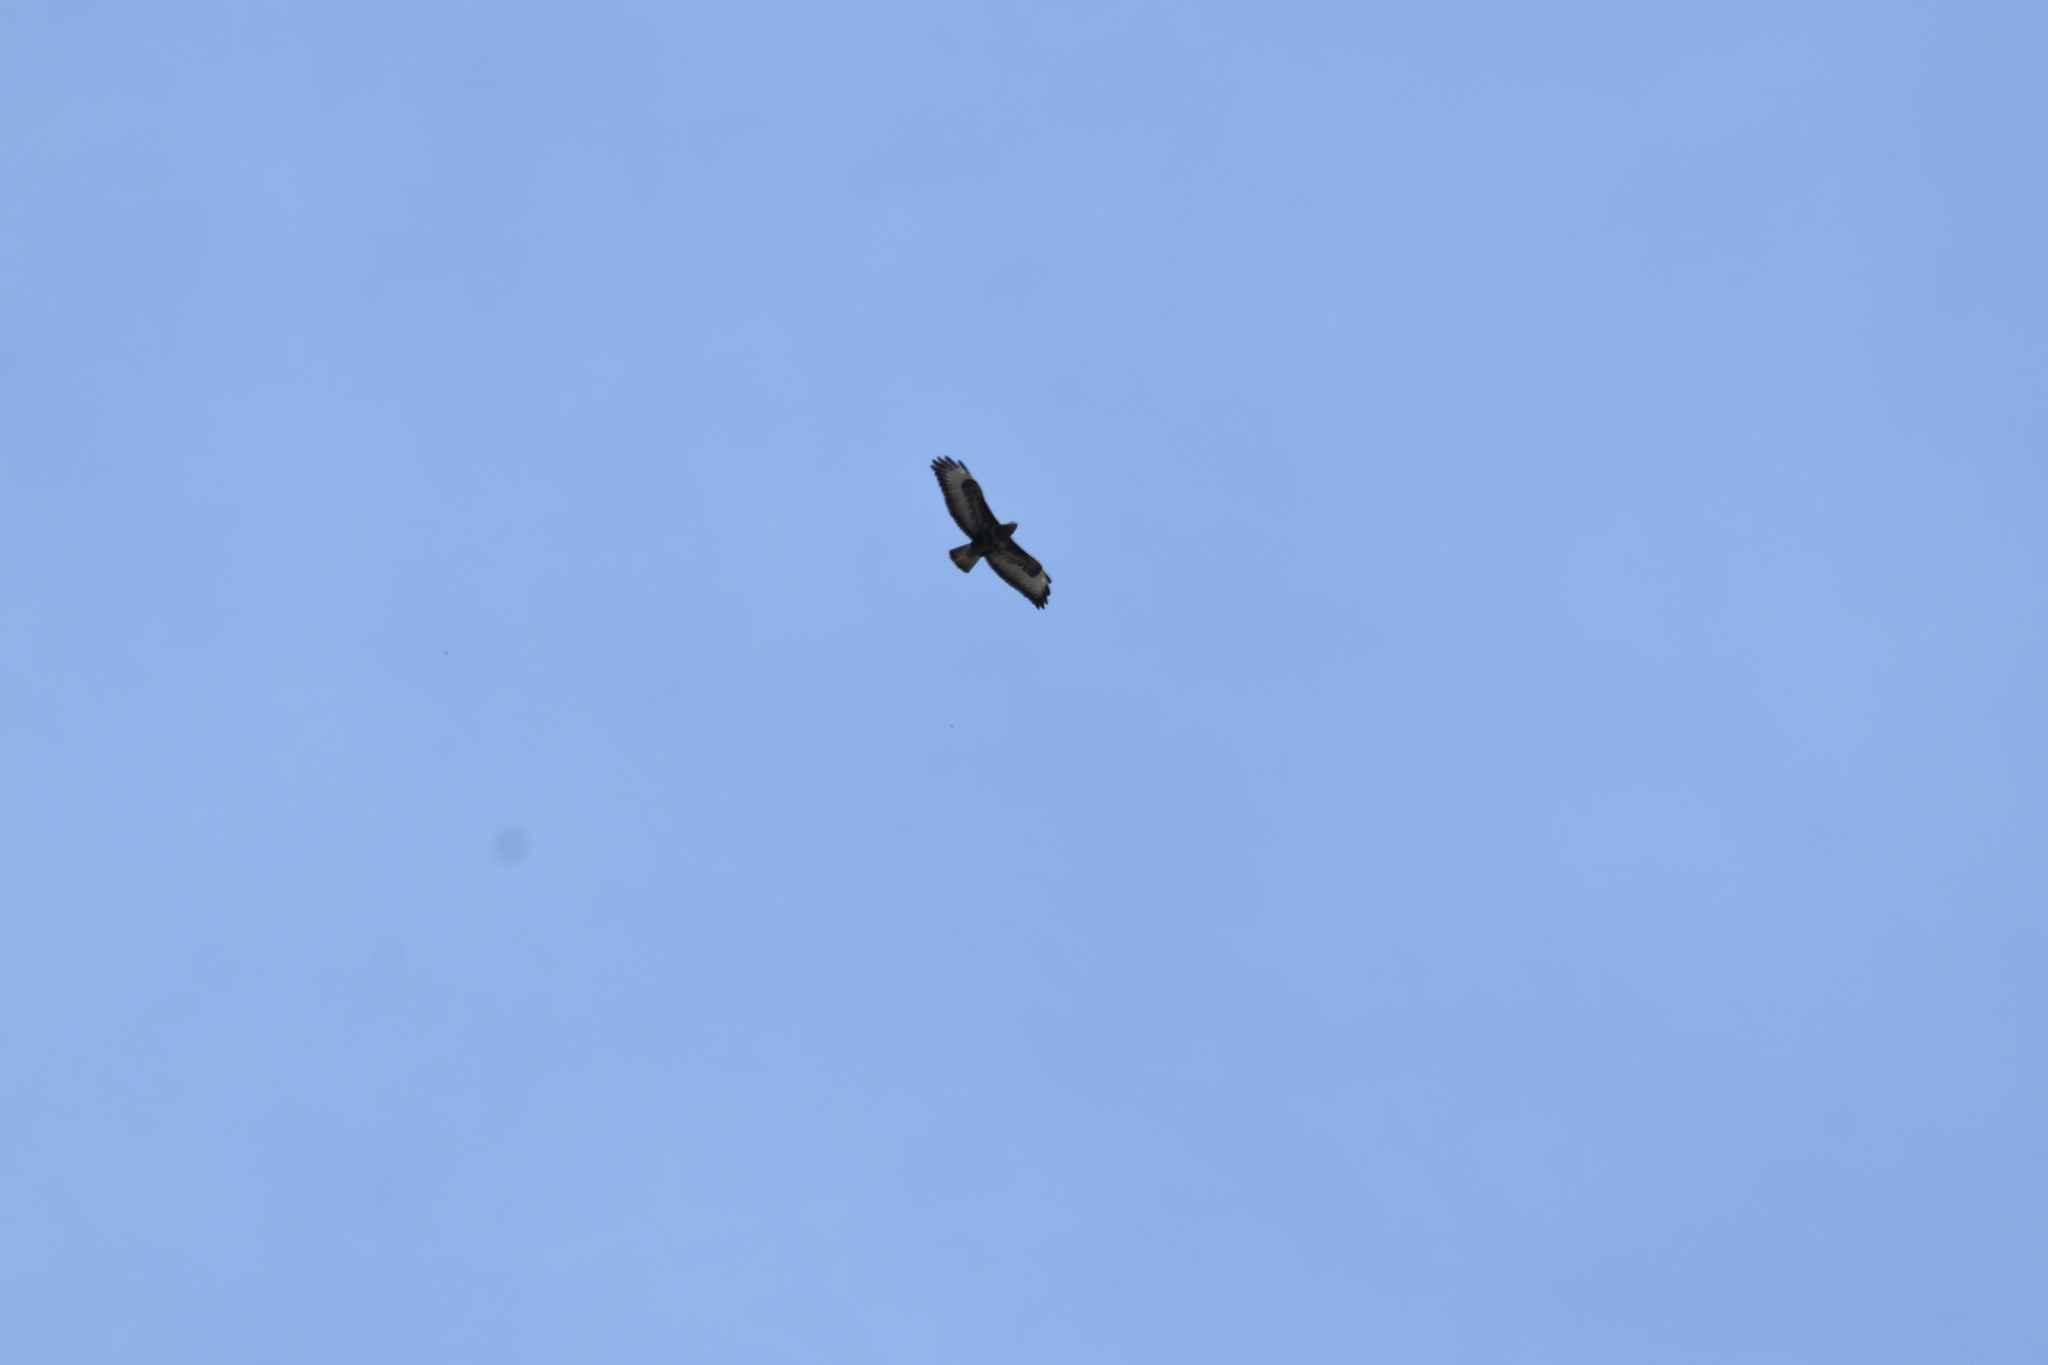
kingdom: Animalia
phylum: Chordata
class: Aves
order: Accipitriformes
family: Accipitridae
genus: Buteo
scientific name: Buteo buteo
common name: Common buzzard
